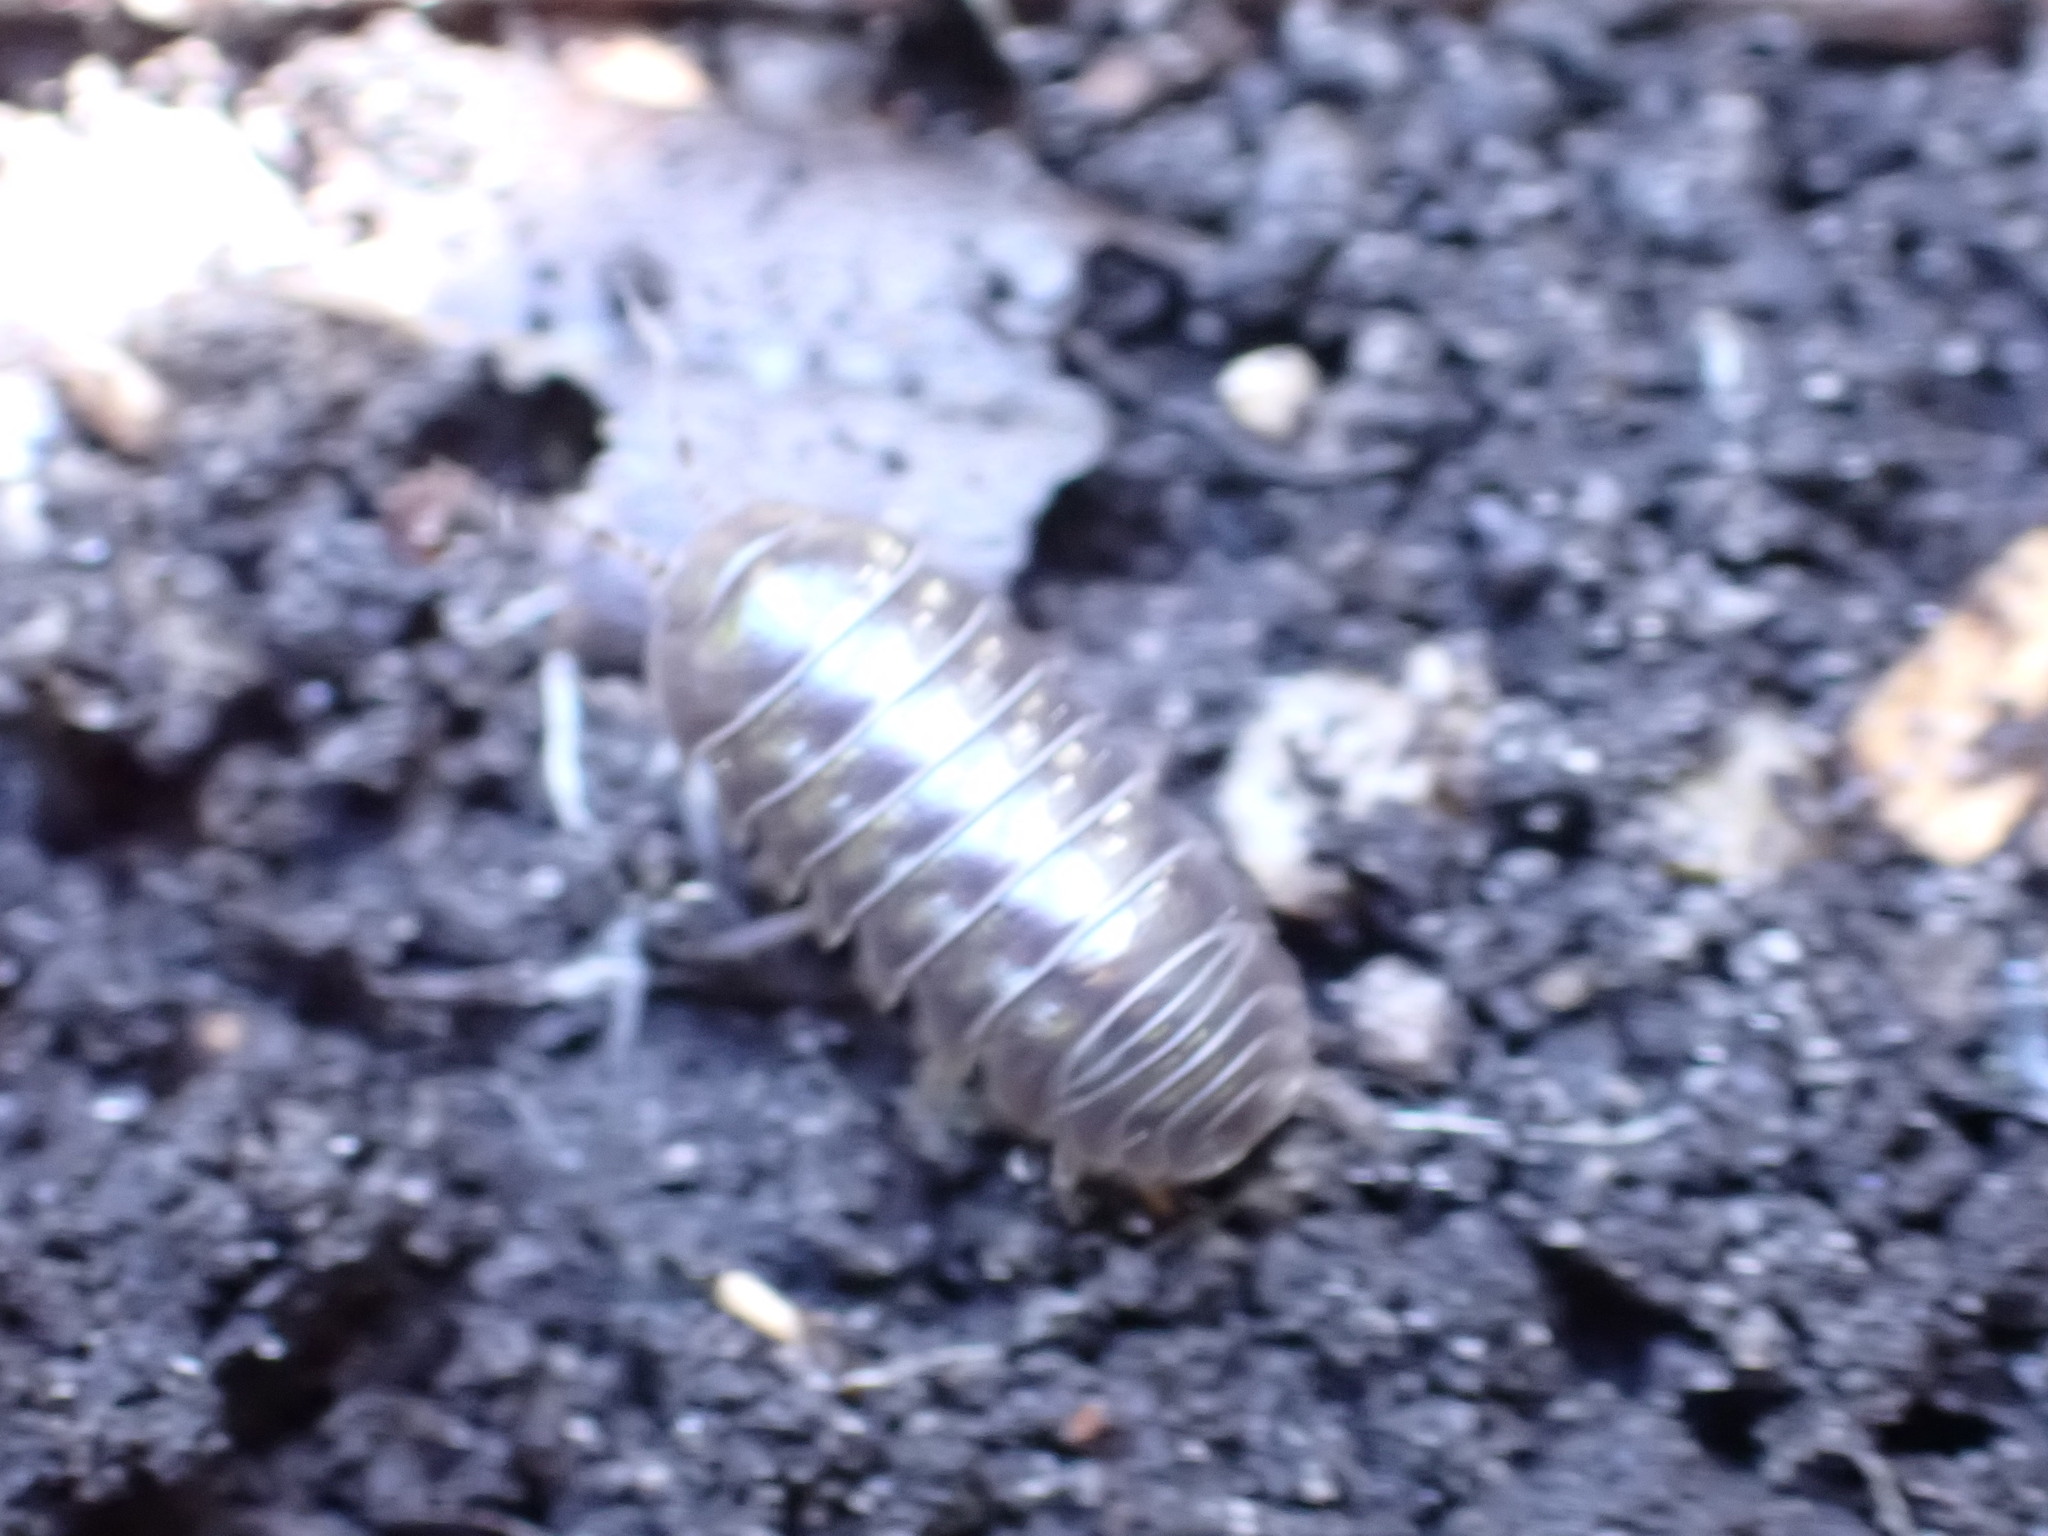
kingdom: Animalia
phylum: Arthropoda
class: Malacostraca
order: Isopoda
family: Armadillidiidae
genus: Armadillidium
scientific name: Armadillidium vulgare
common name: Common pill woodlouse
